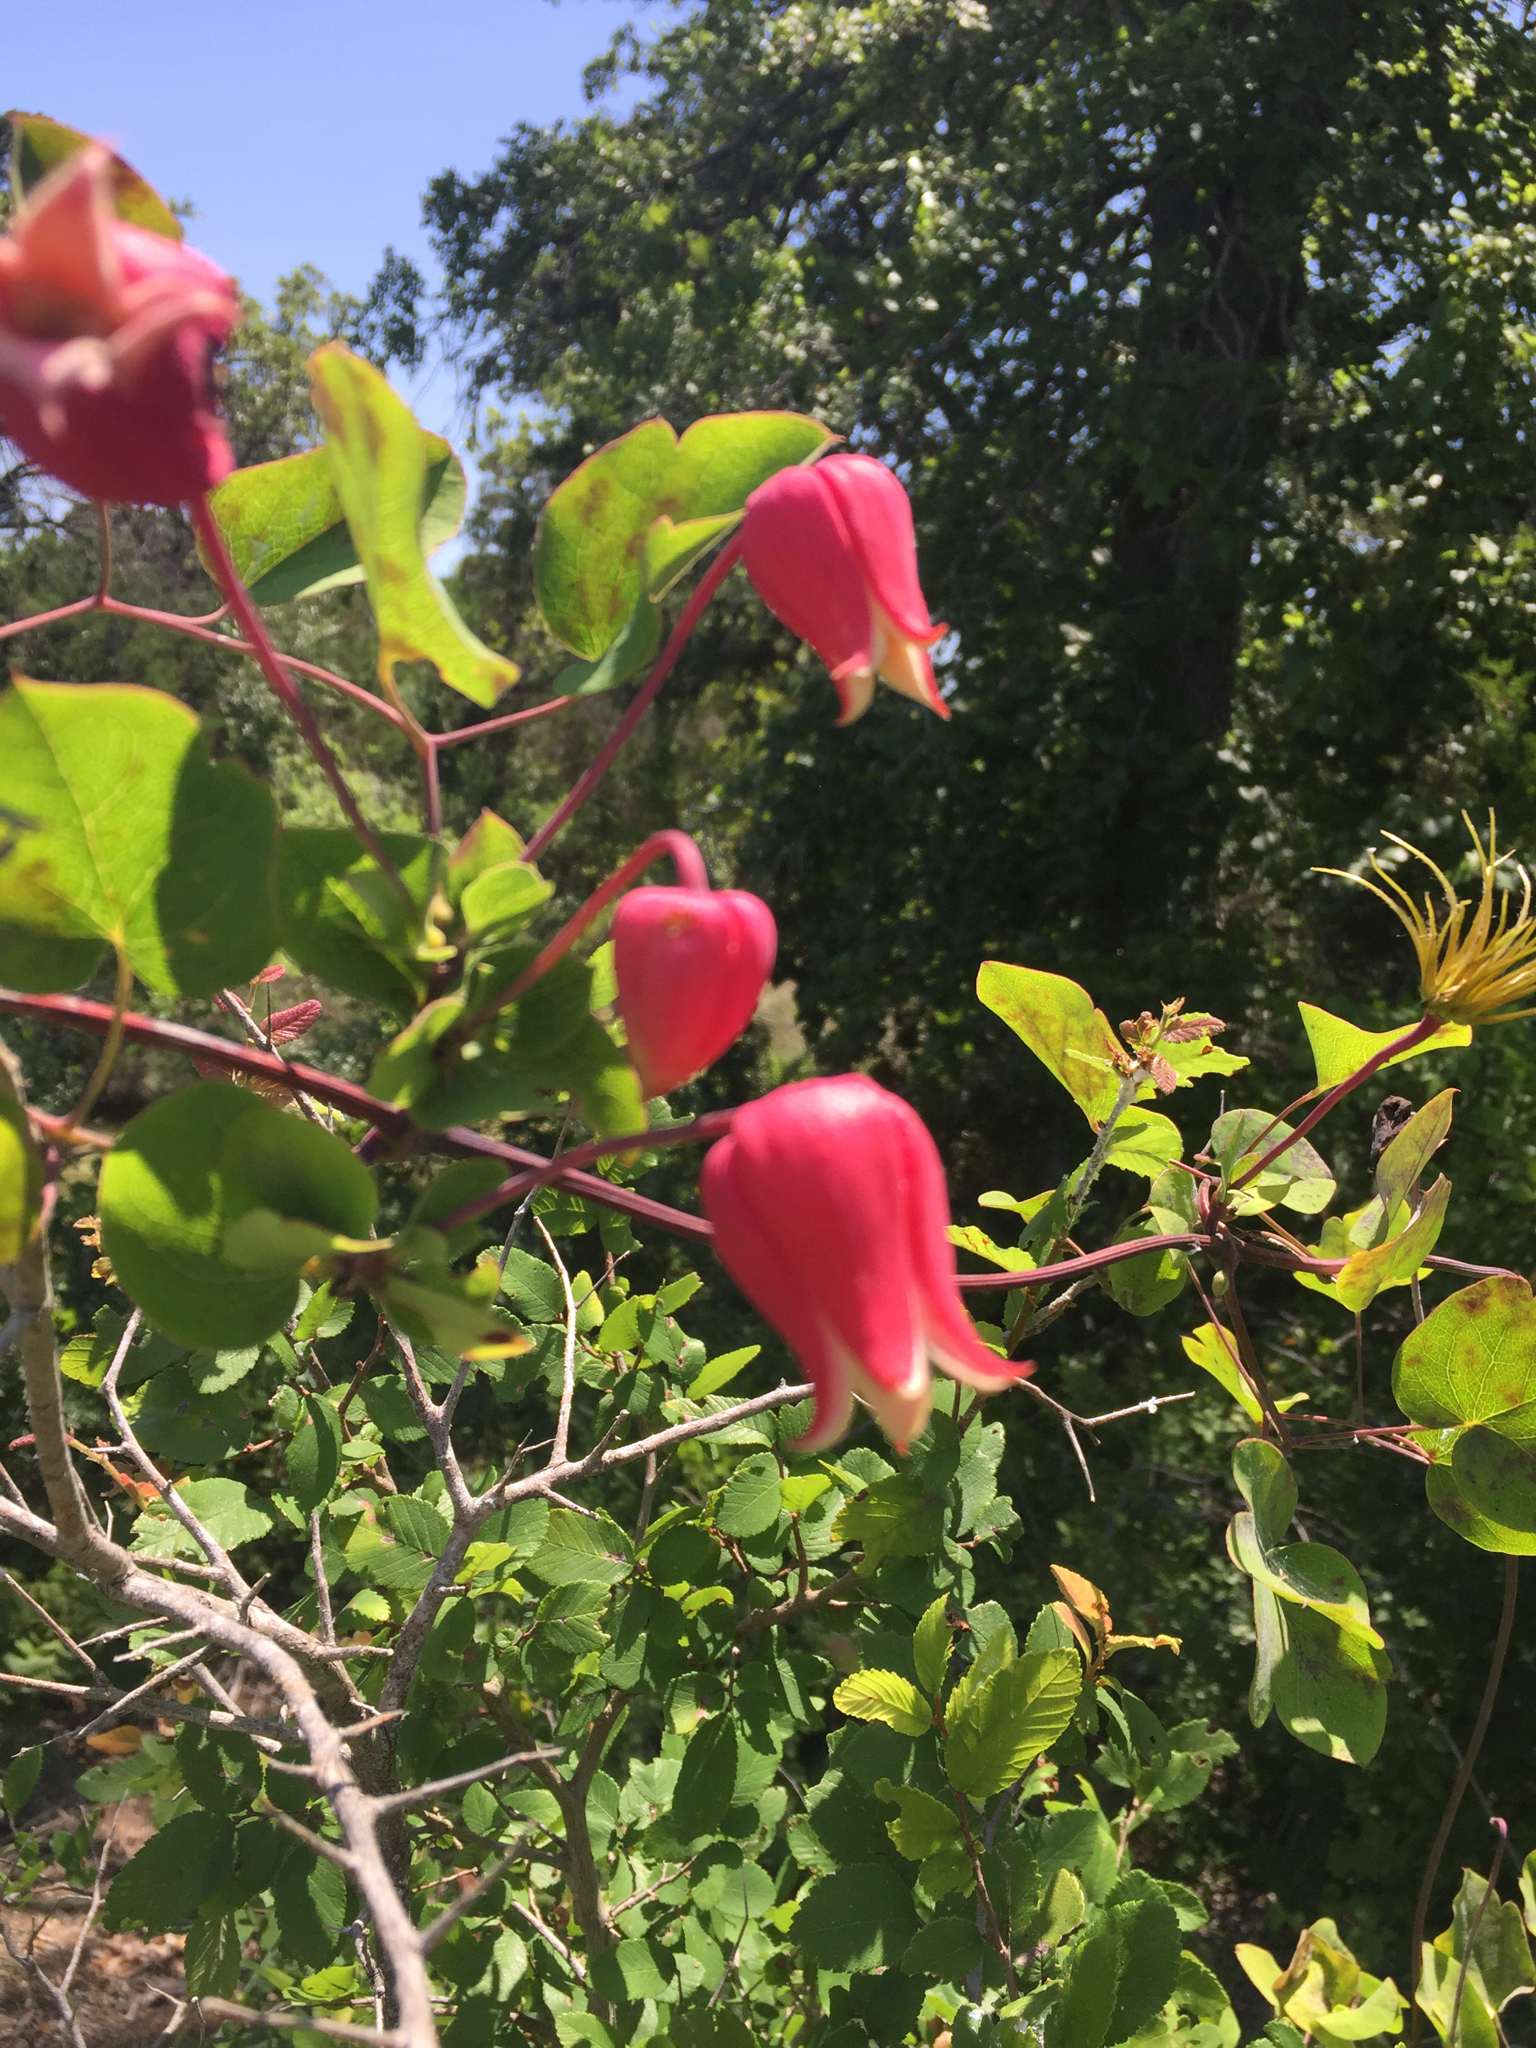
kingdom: Plantae
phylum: Tracheophyta
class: Magnoliopsida
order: Ranunculales
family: Ranunculaceae
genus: Clematis
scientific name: Clematis texensis
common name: Crimson clematis
